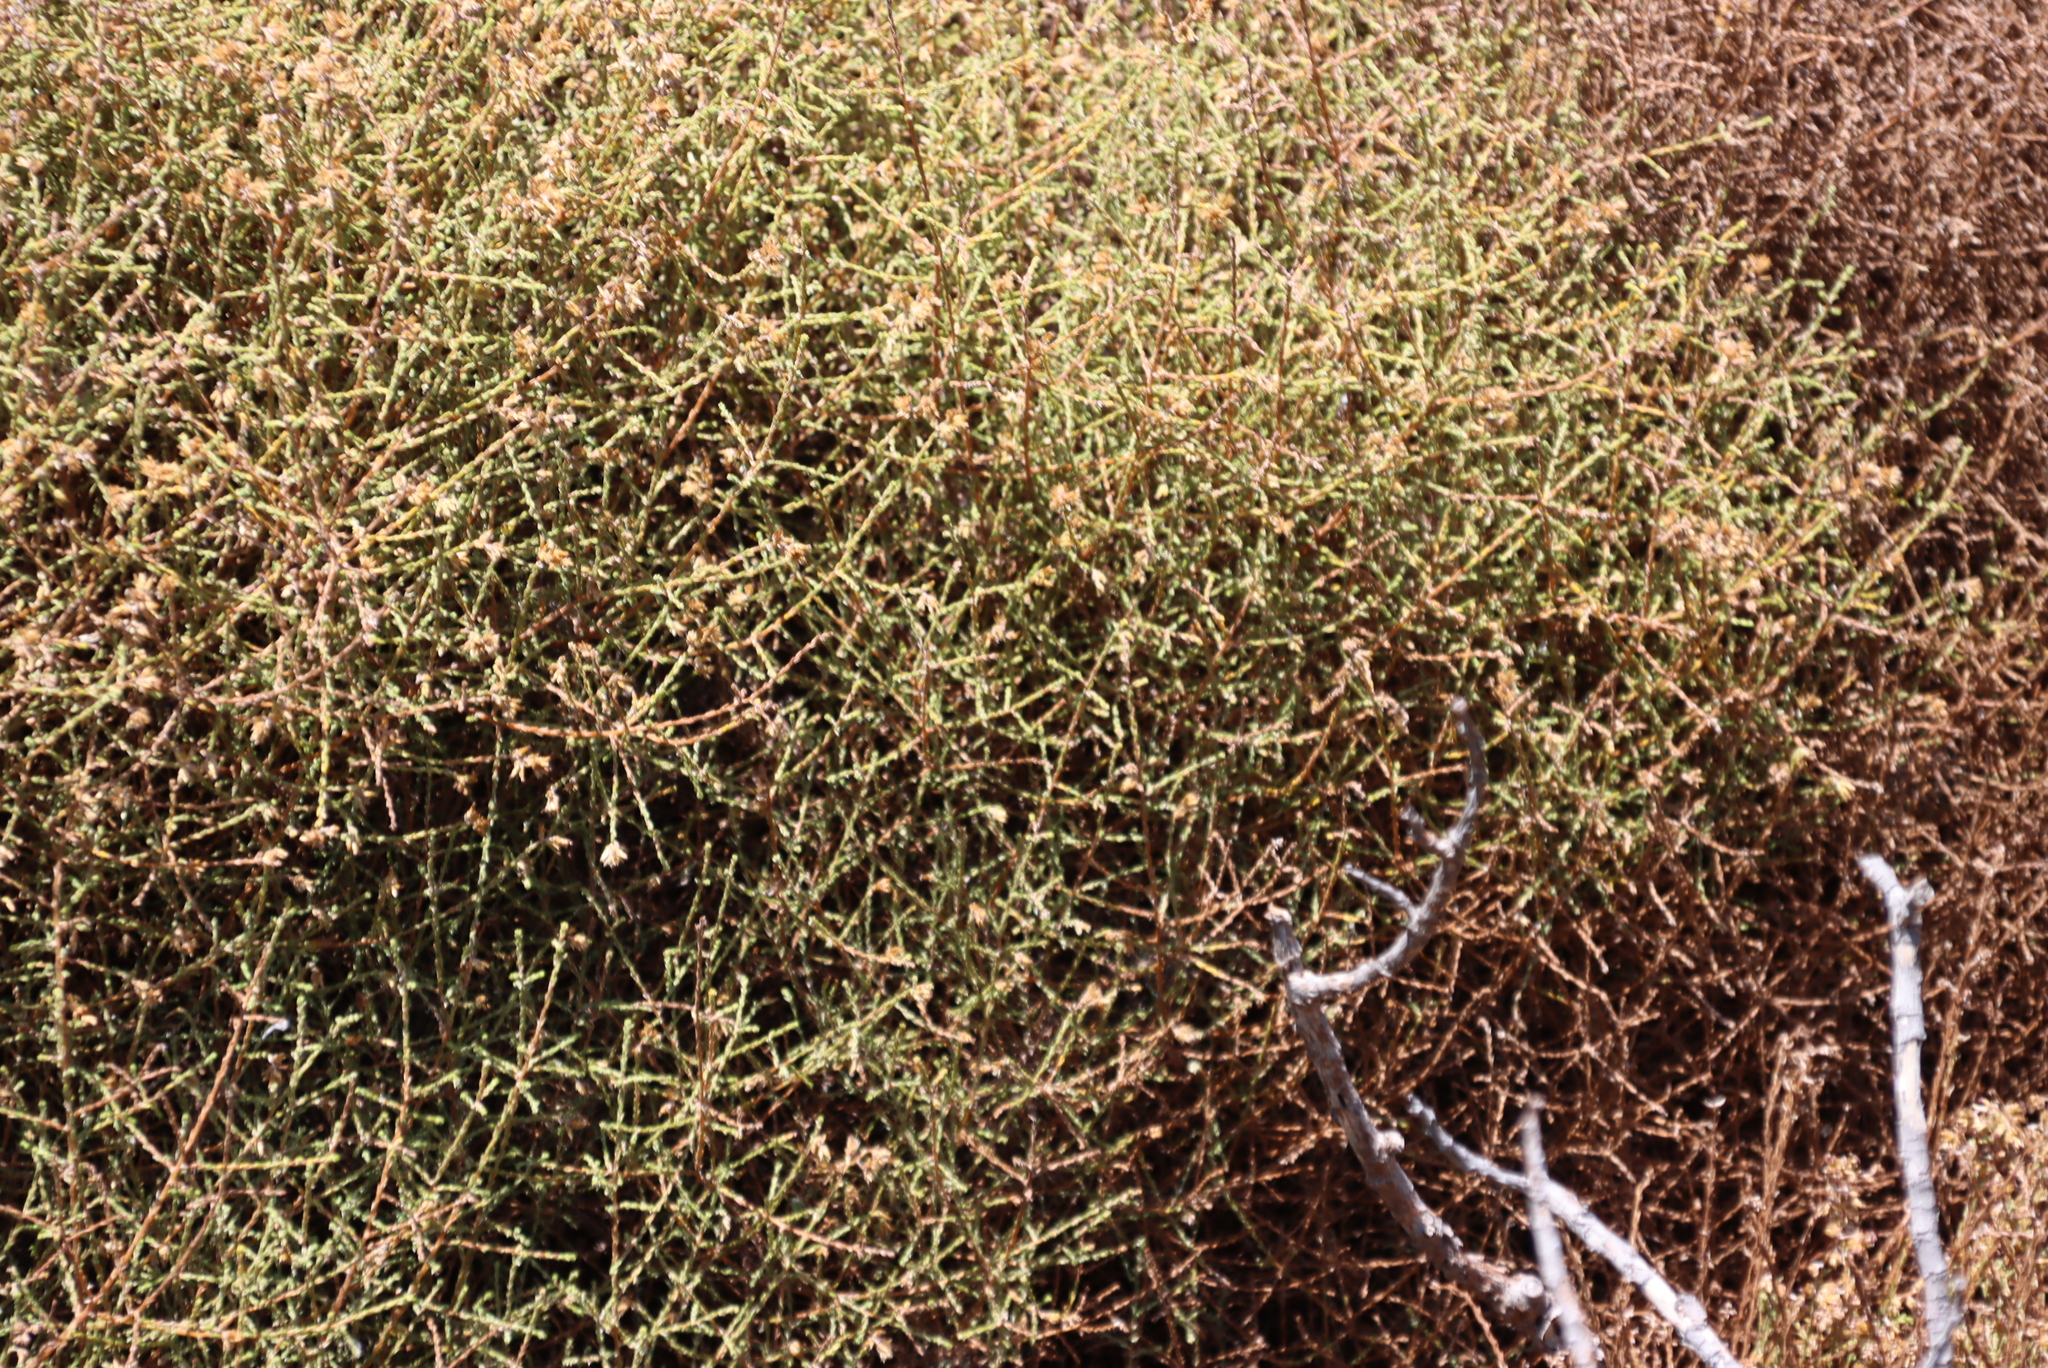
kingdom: Plantae
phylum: Tracheophyta
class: Magnoliopsida
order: Asterales
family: Asteraceae
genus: Myrovernix
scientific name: Myrovernix scaber
